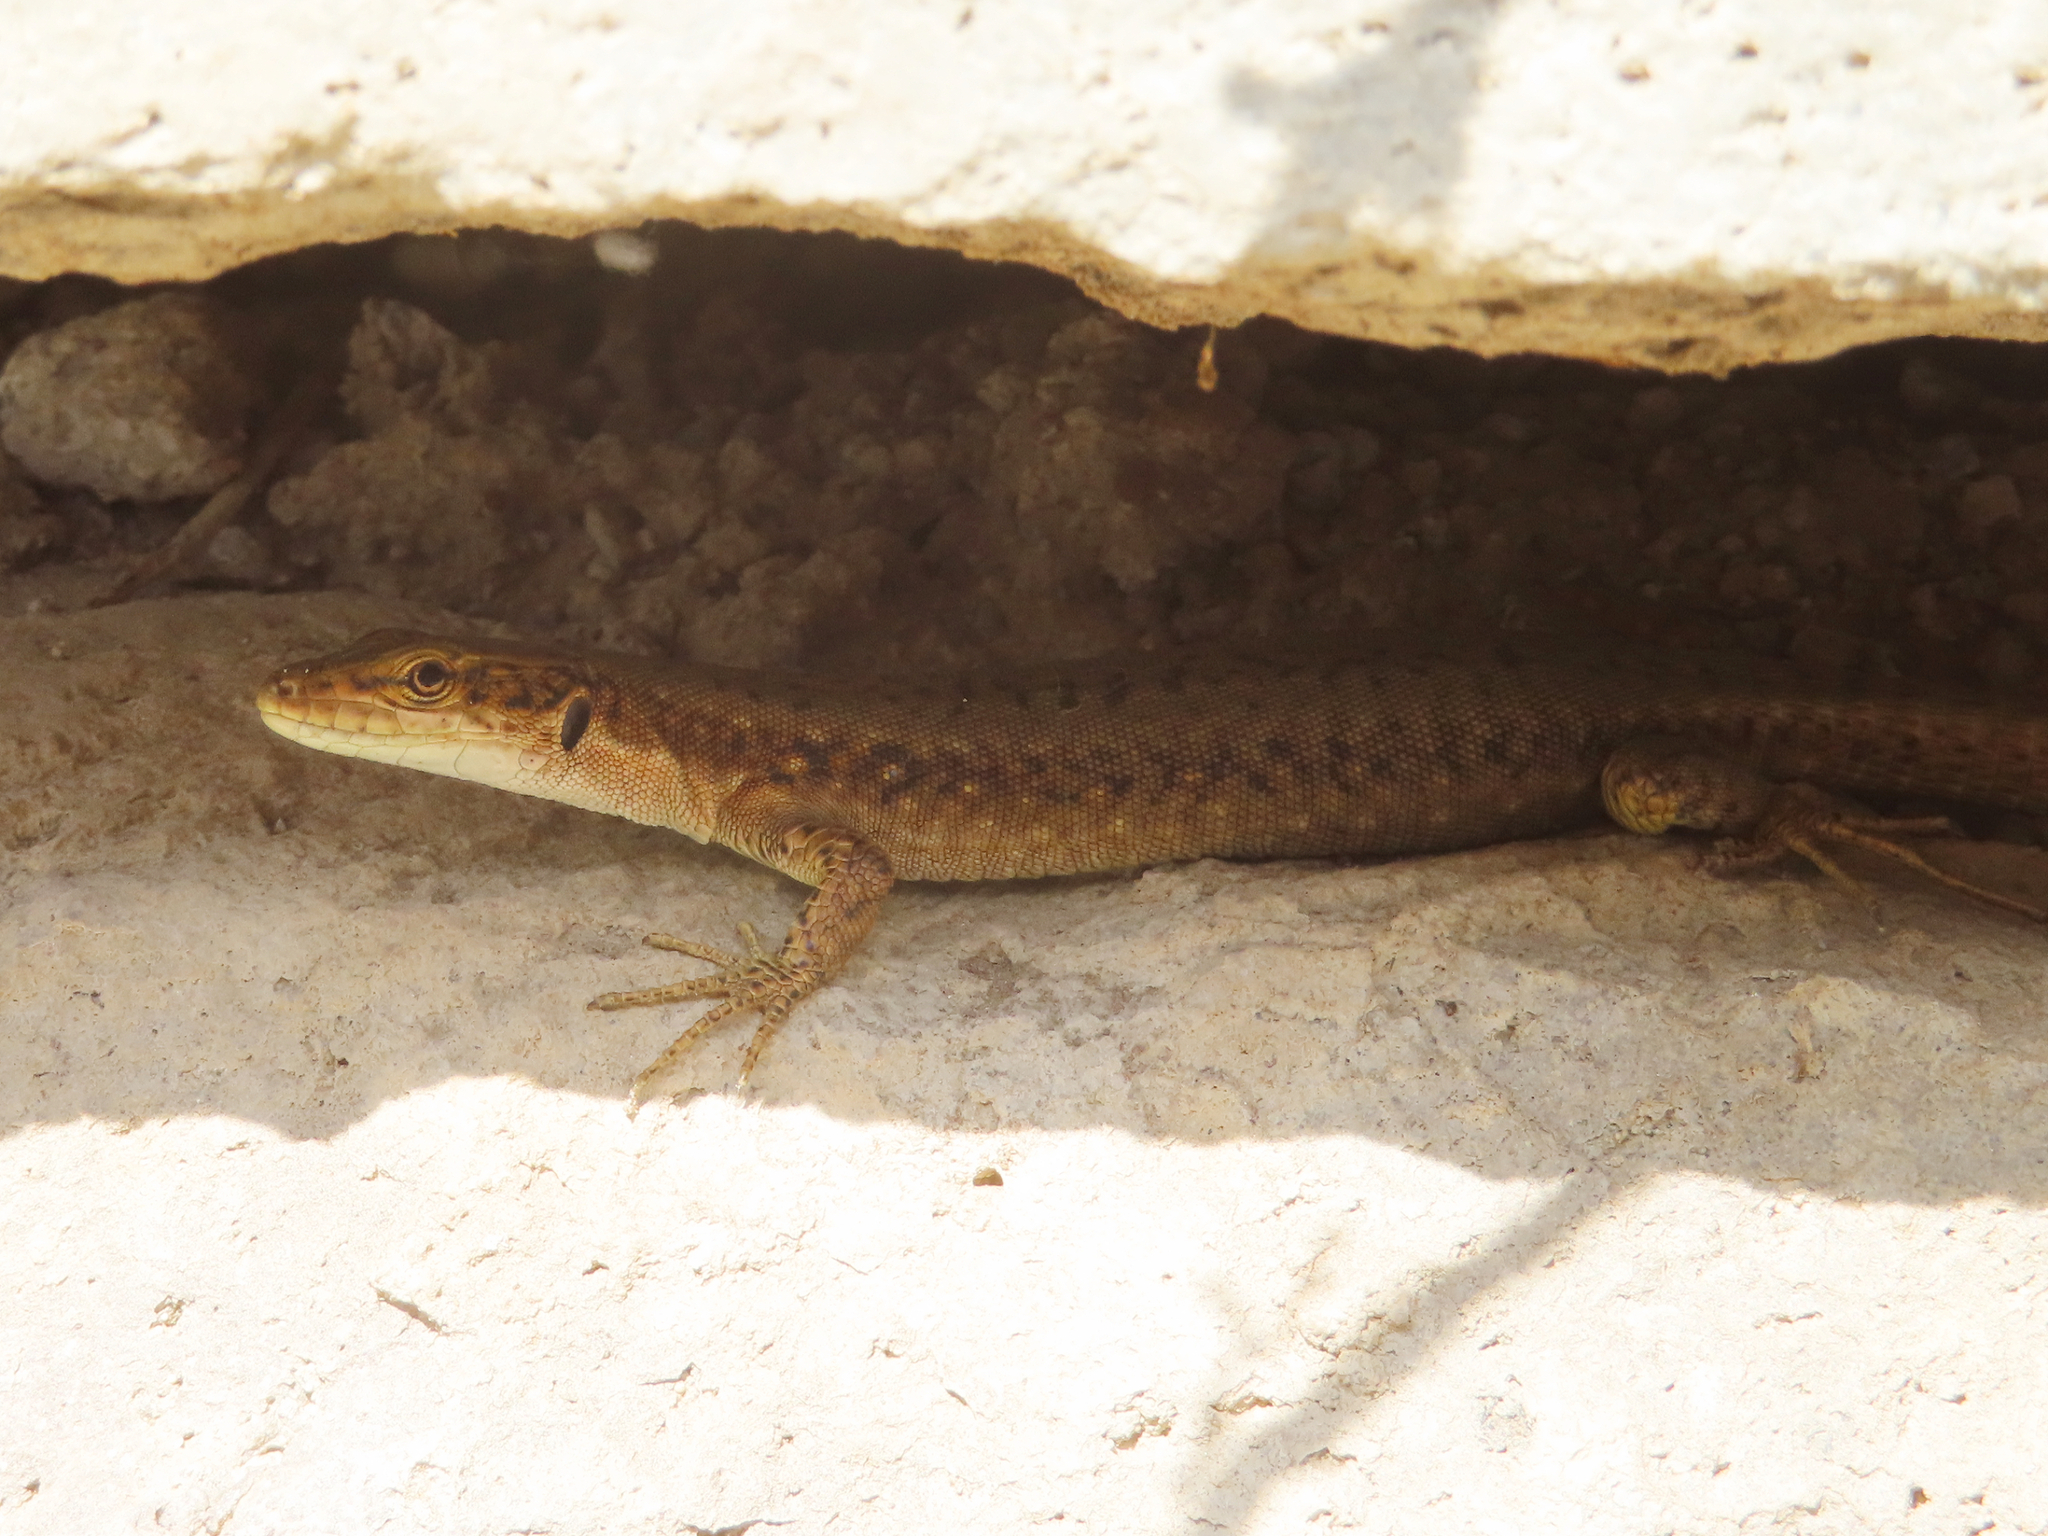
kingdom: Animalia
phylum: Chordata
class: Squamata
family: Lacertidae
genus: Darevskia
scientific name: Darevskia dahli
